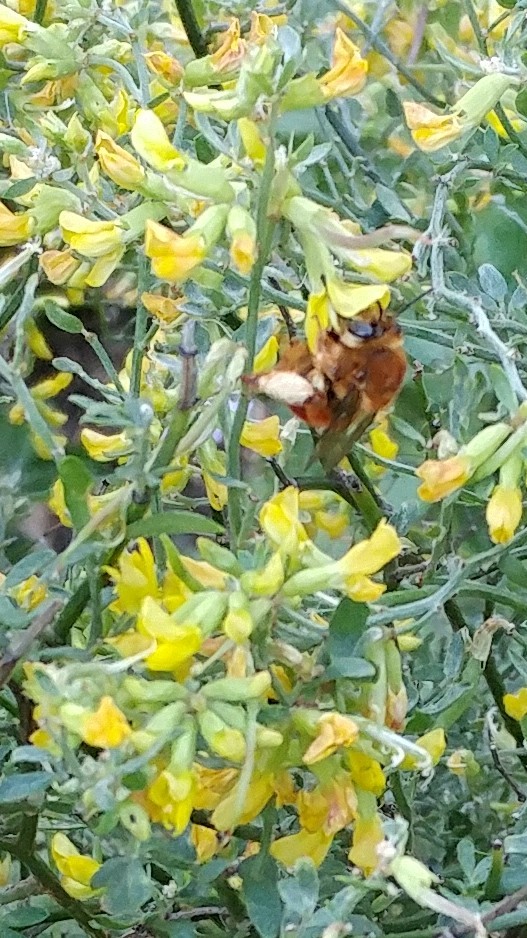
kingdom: Animalia
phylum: Arthropoda
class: Insecta
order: Hymenoptera
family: Apidae
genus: Habropoda
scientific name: Habropoda depressa
